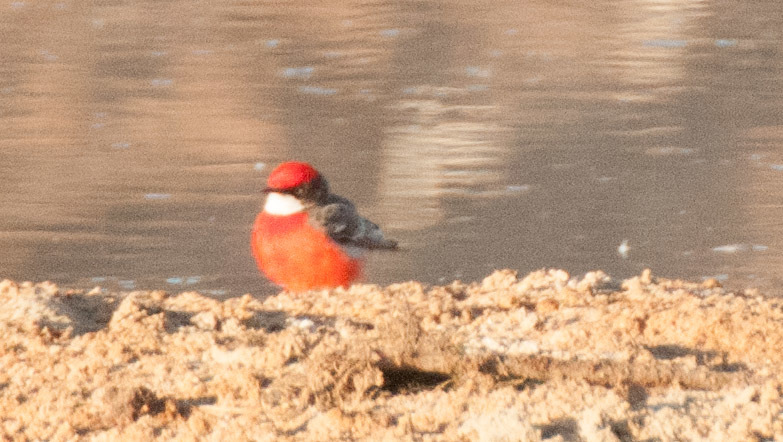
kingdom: Animalia
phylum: Chordata
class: Aves
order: Passeriformes
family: Meliphagidae
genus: Epthianura
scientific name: Epthianura tricolor
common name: Crimson chat
